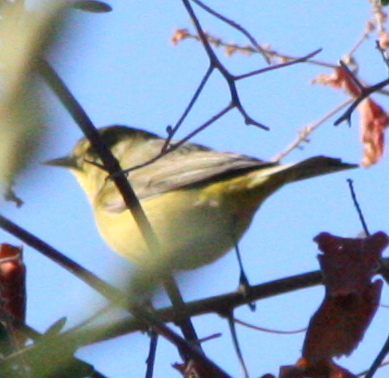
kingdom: Animalia
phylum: Chordata
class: Aves
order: Passeriformes
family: Parulidae
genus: Leiothlypis
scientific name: Leiothlypis celata
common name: Orange-crowned warbler
